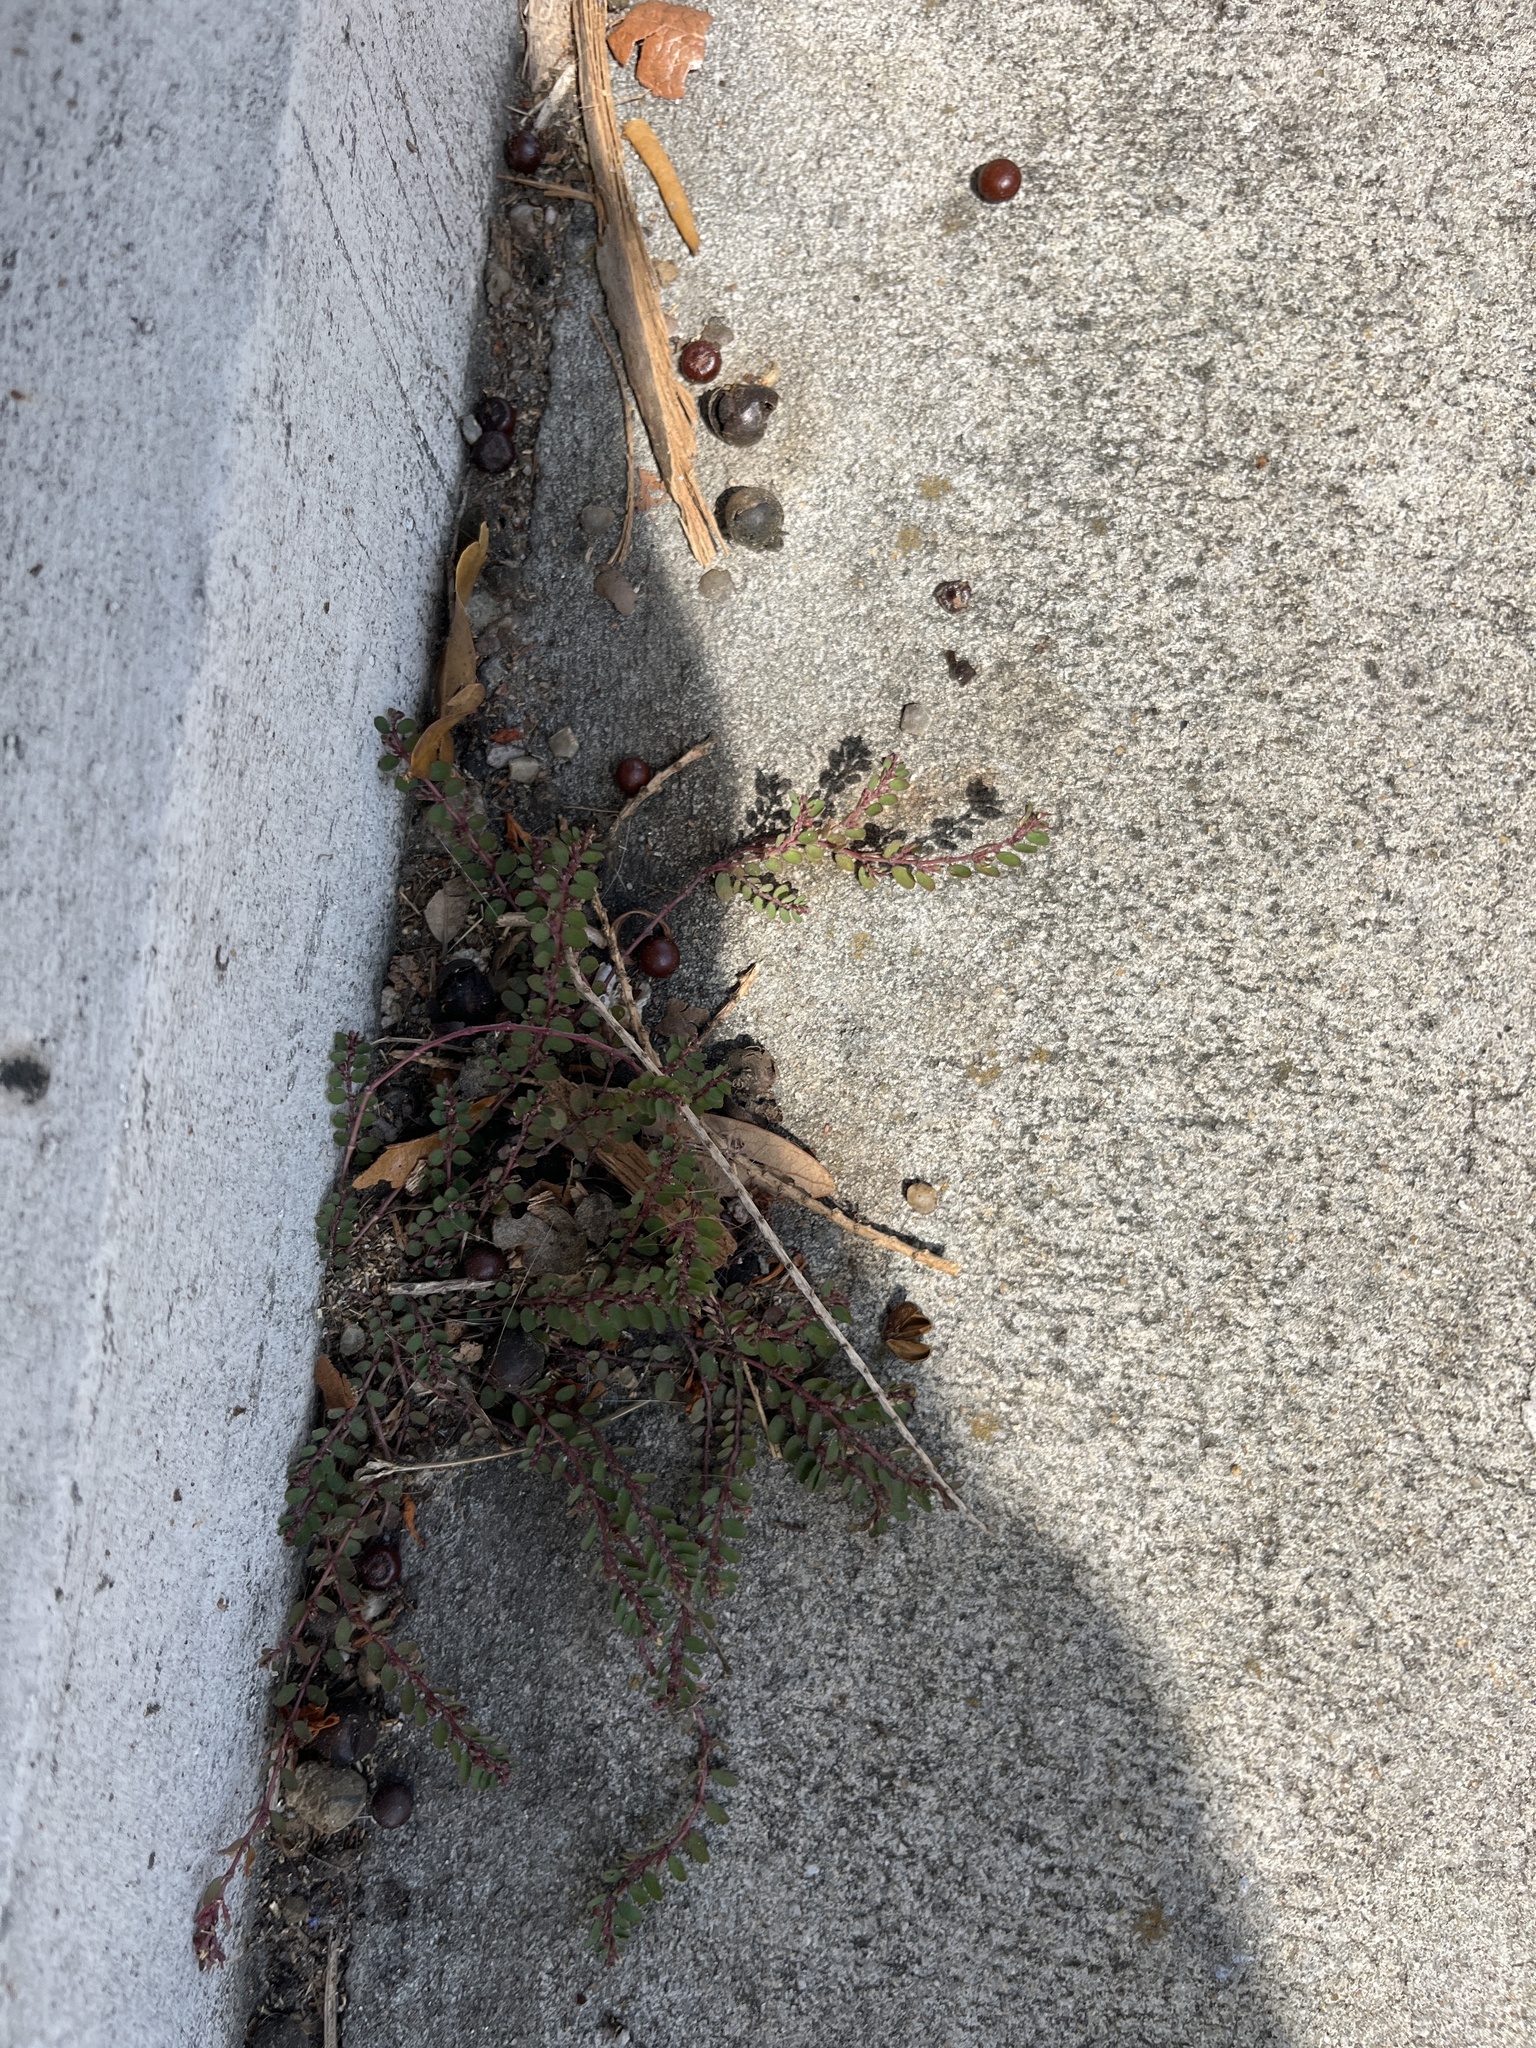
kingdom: Plantae
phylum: Tracheophyta
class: Magnoliopsida
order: Malpighiales
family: Euphorbiaceae
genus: Euphorbia
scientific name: Euphorbia maculata
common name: Spotted spurge
